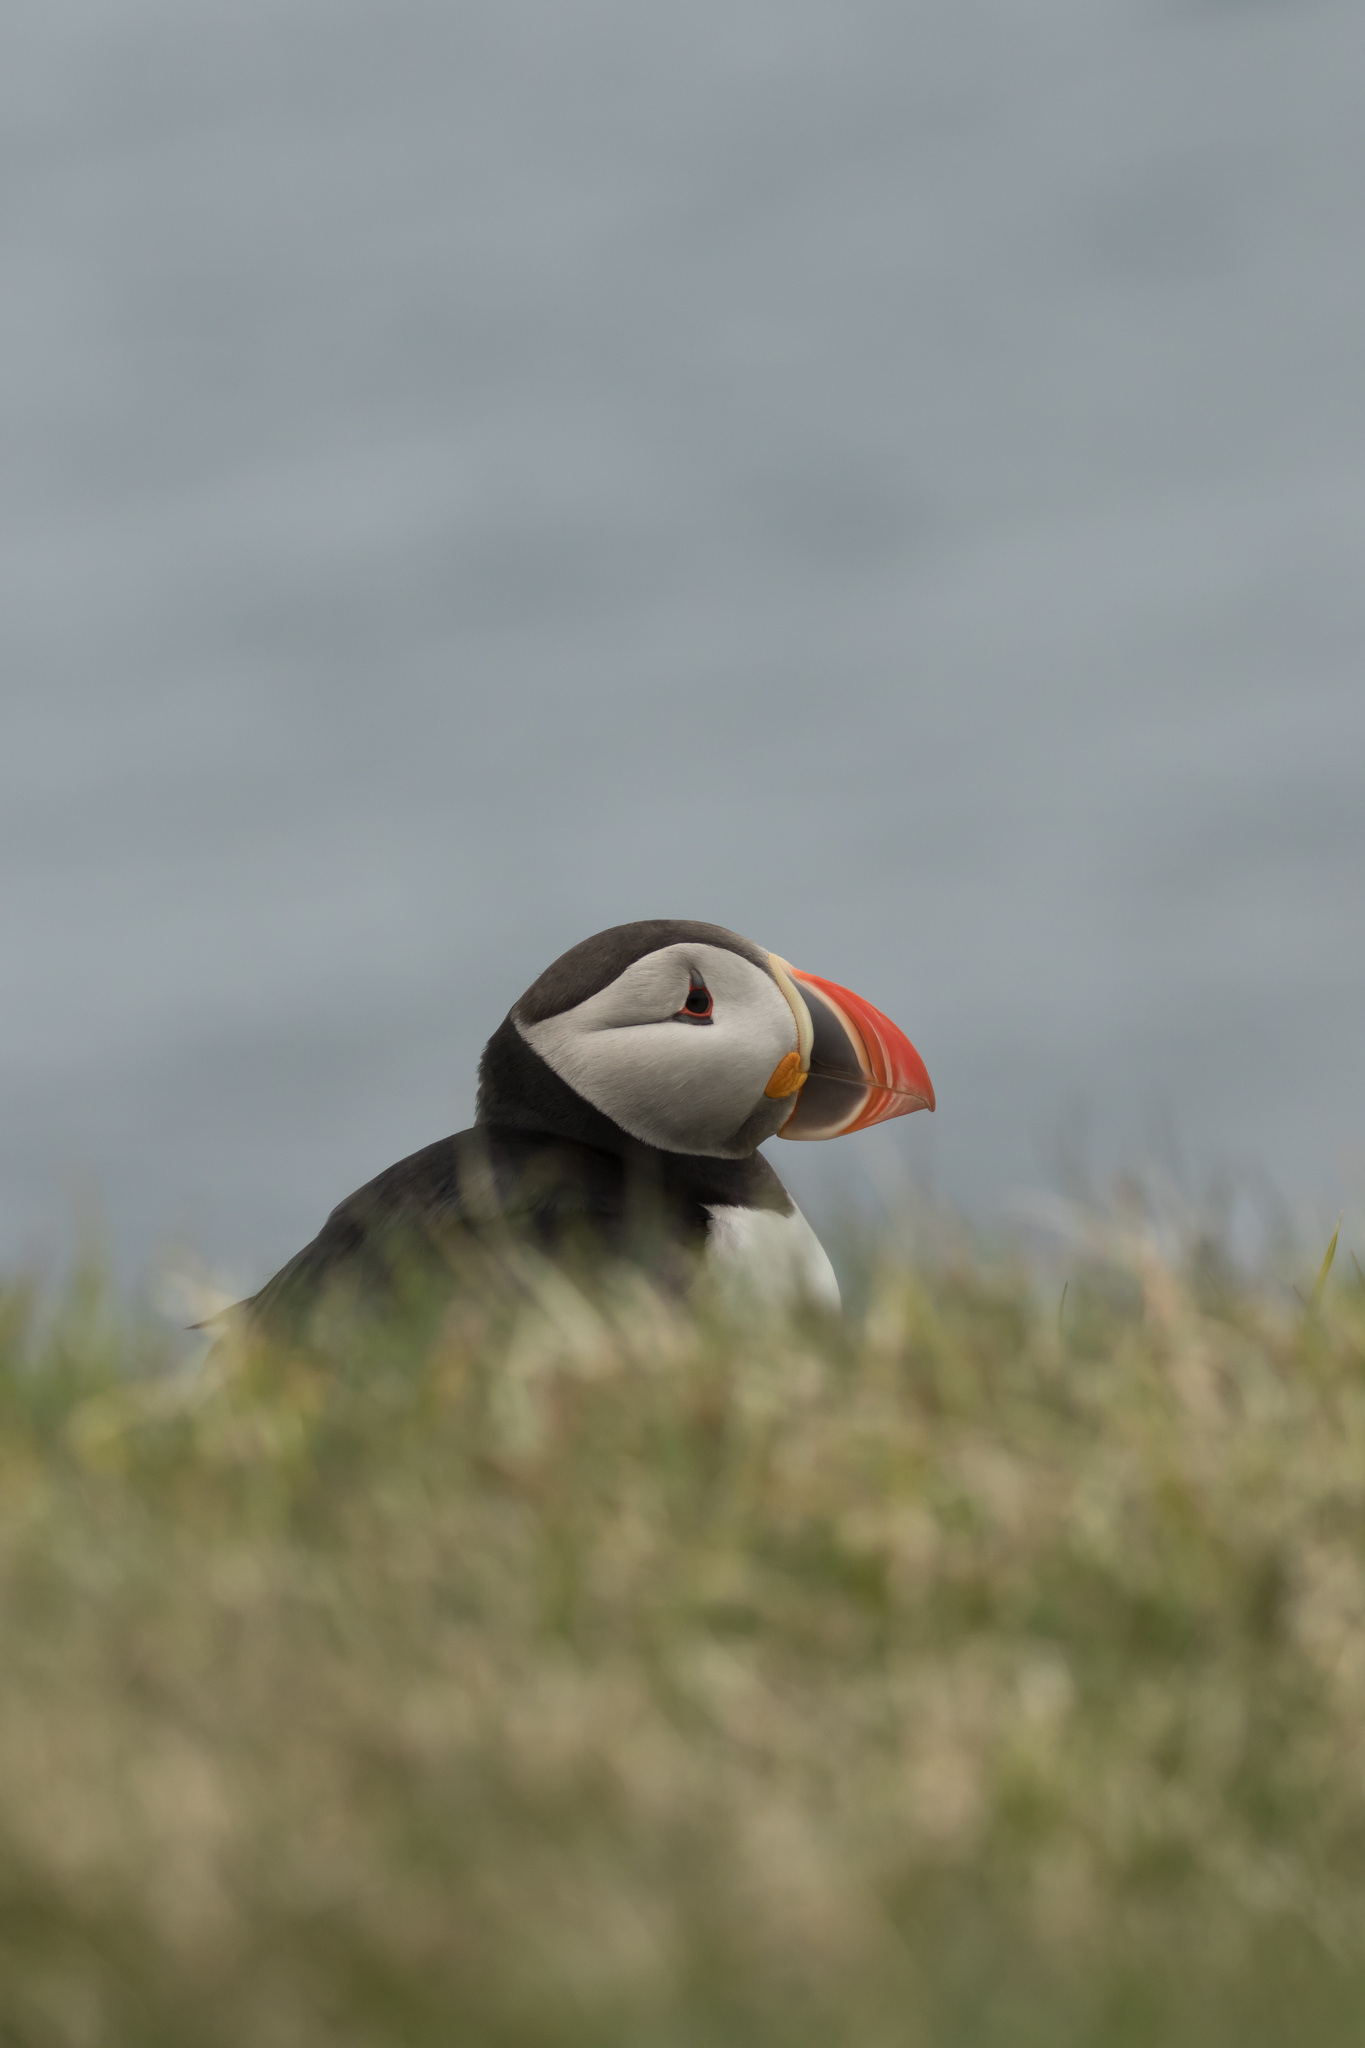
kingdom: Animalia
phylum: Chordata
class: Aves
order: Charadriiformes
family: Alcidae
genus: Fratercula
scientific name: Fratercula arctica
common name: Atlantic puffin
